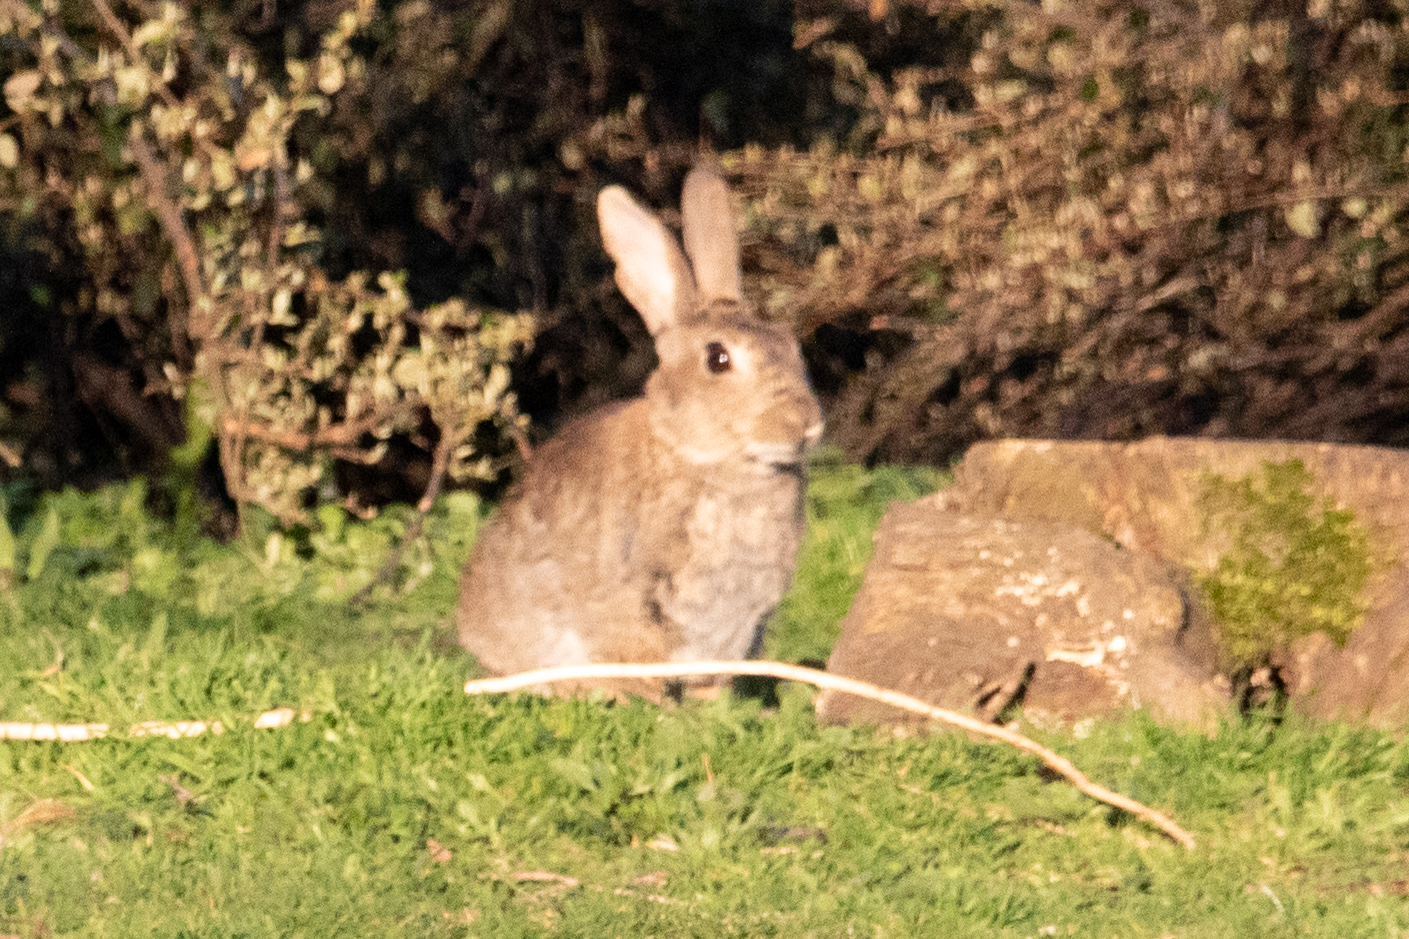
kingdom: Animalia
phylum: Chordata
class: Mammalia
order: Lagomorpha
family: Leporidae
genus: Oryctolagus
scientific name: Oryctolagus cuniculus
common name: European rabbit
